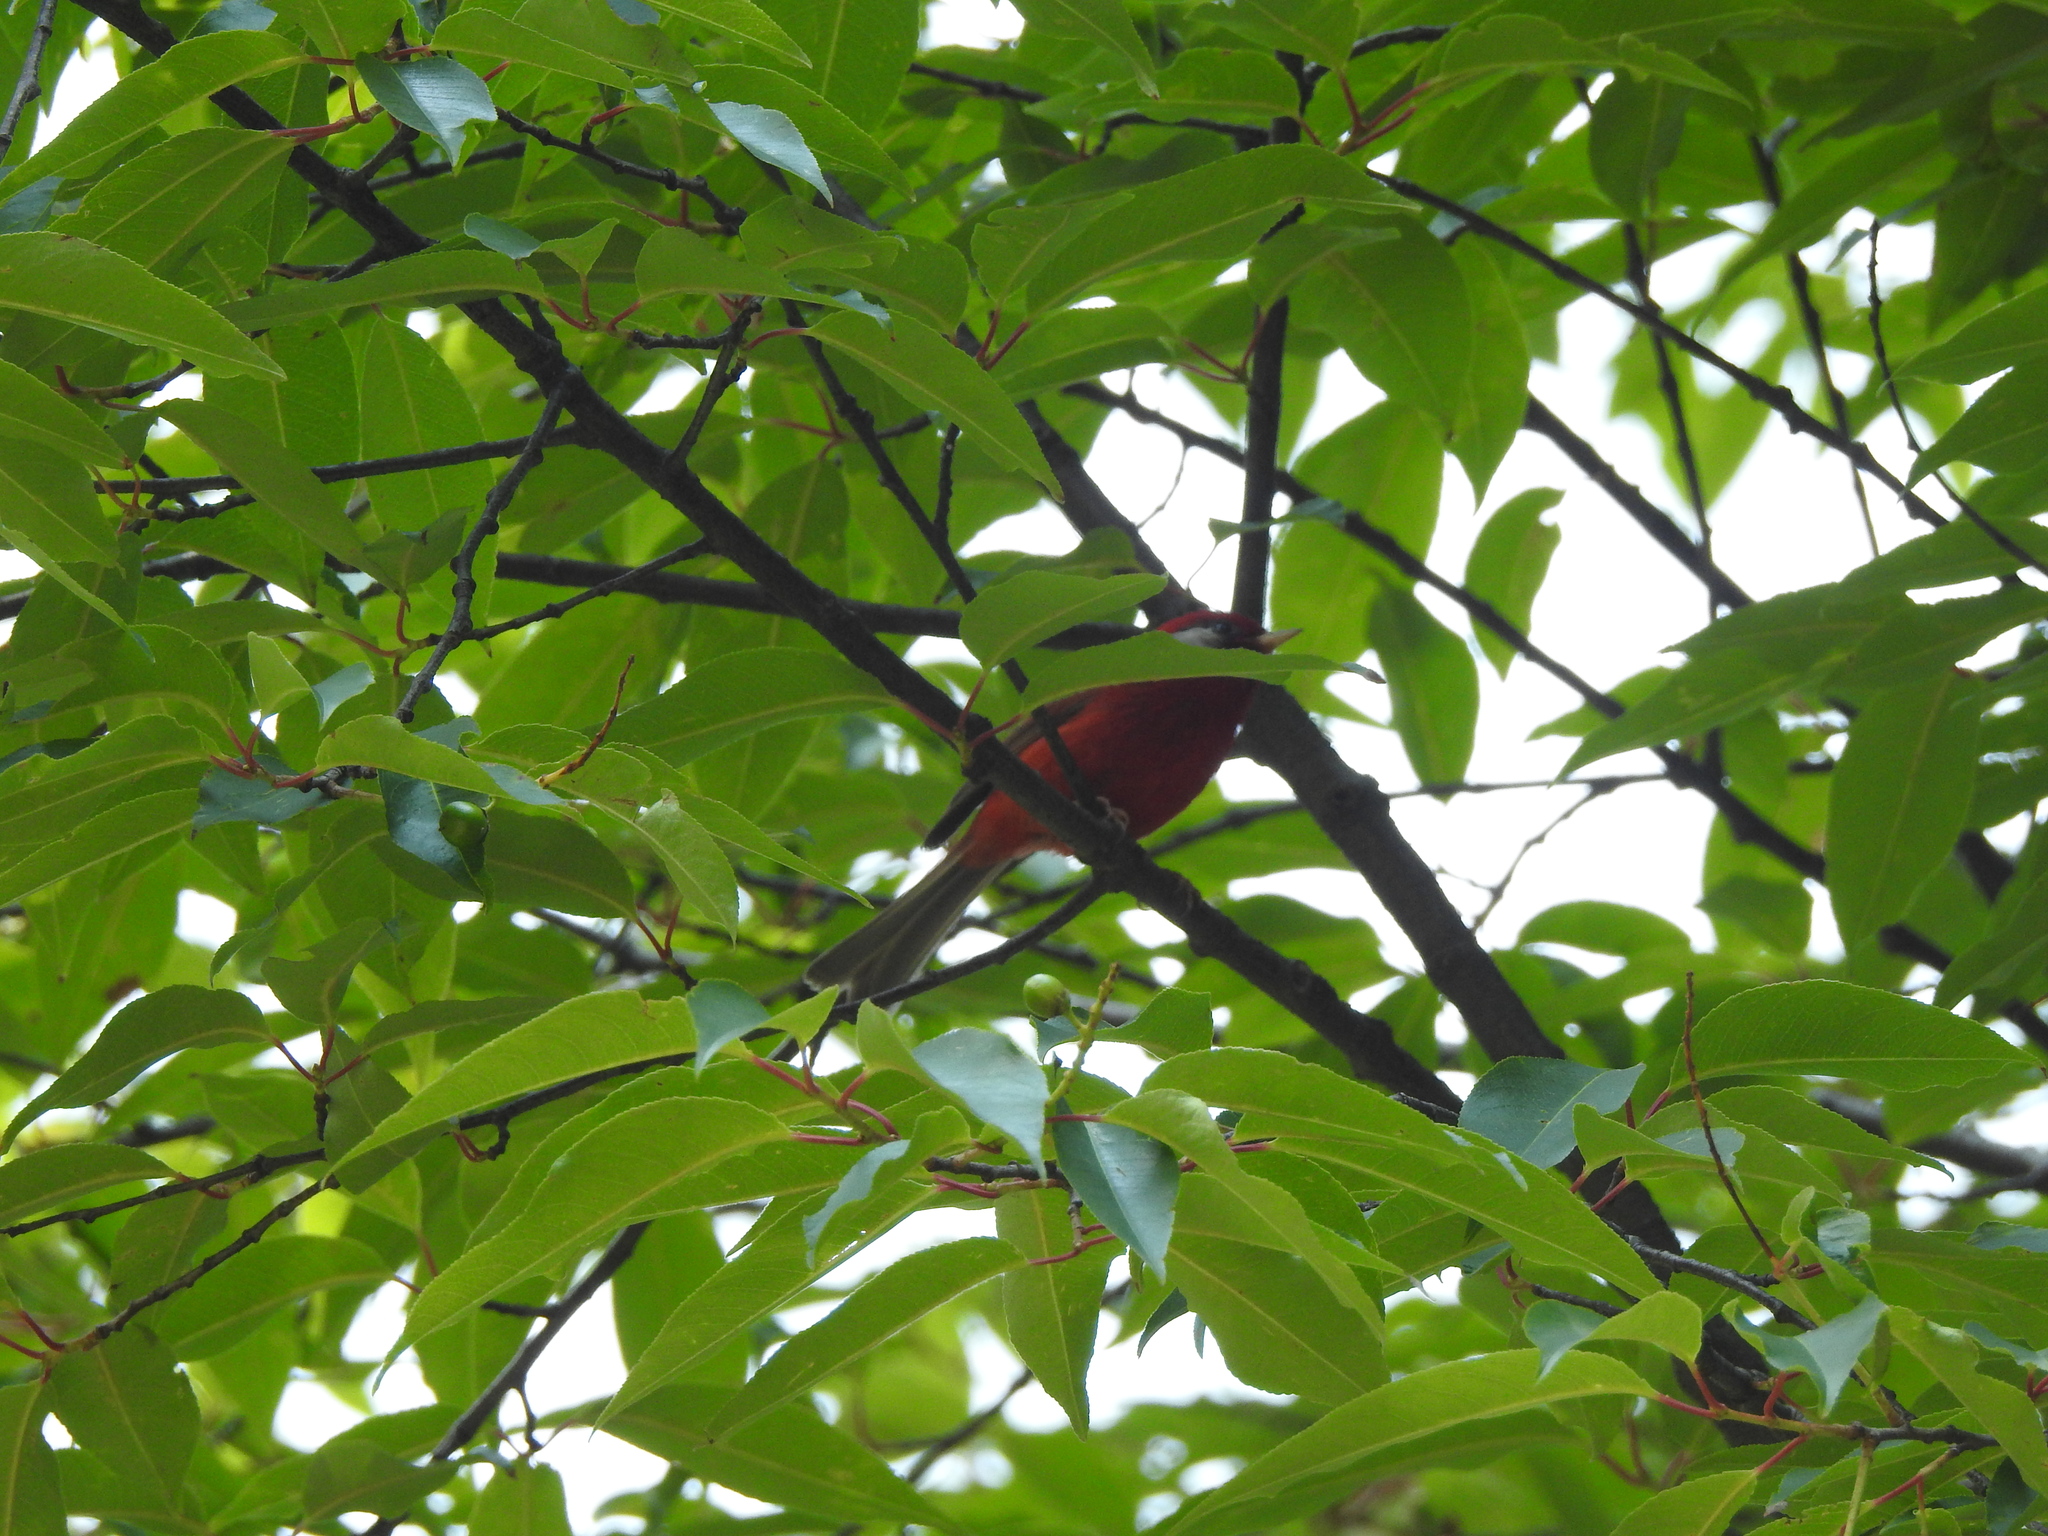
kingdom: Animalia
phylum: Chordata
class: Aves
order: Passeriformes
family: Parulidae
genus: Cardellina
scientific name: Cardellina rubra
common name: Red warbler
